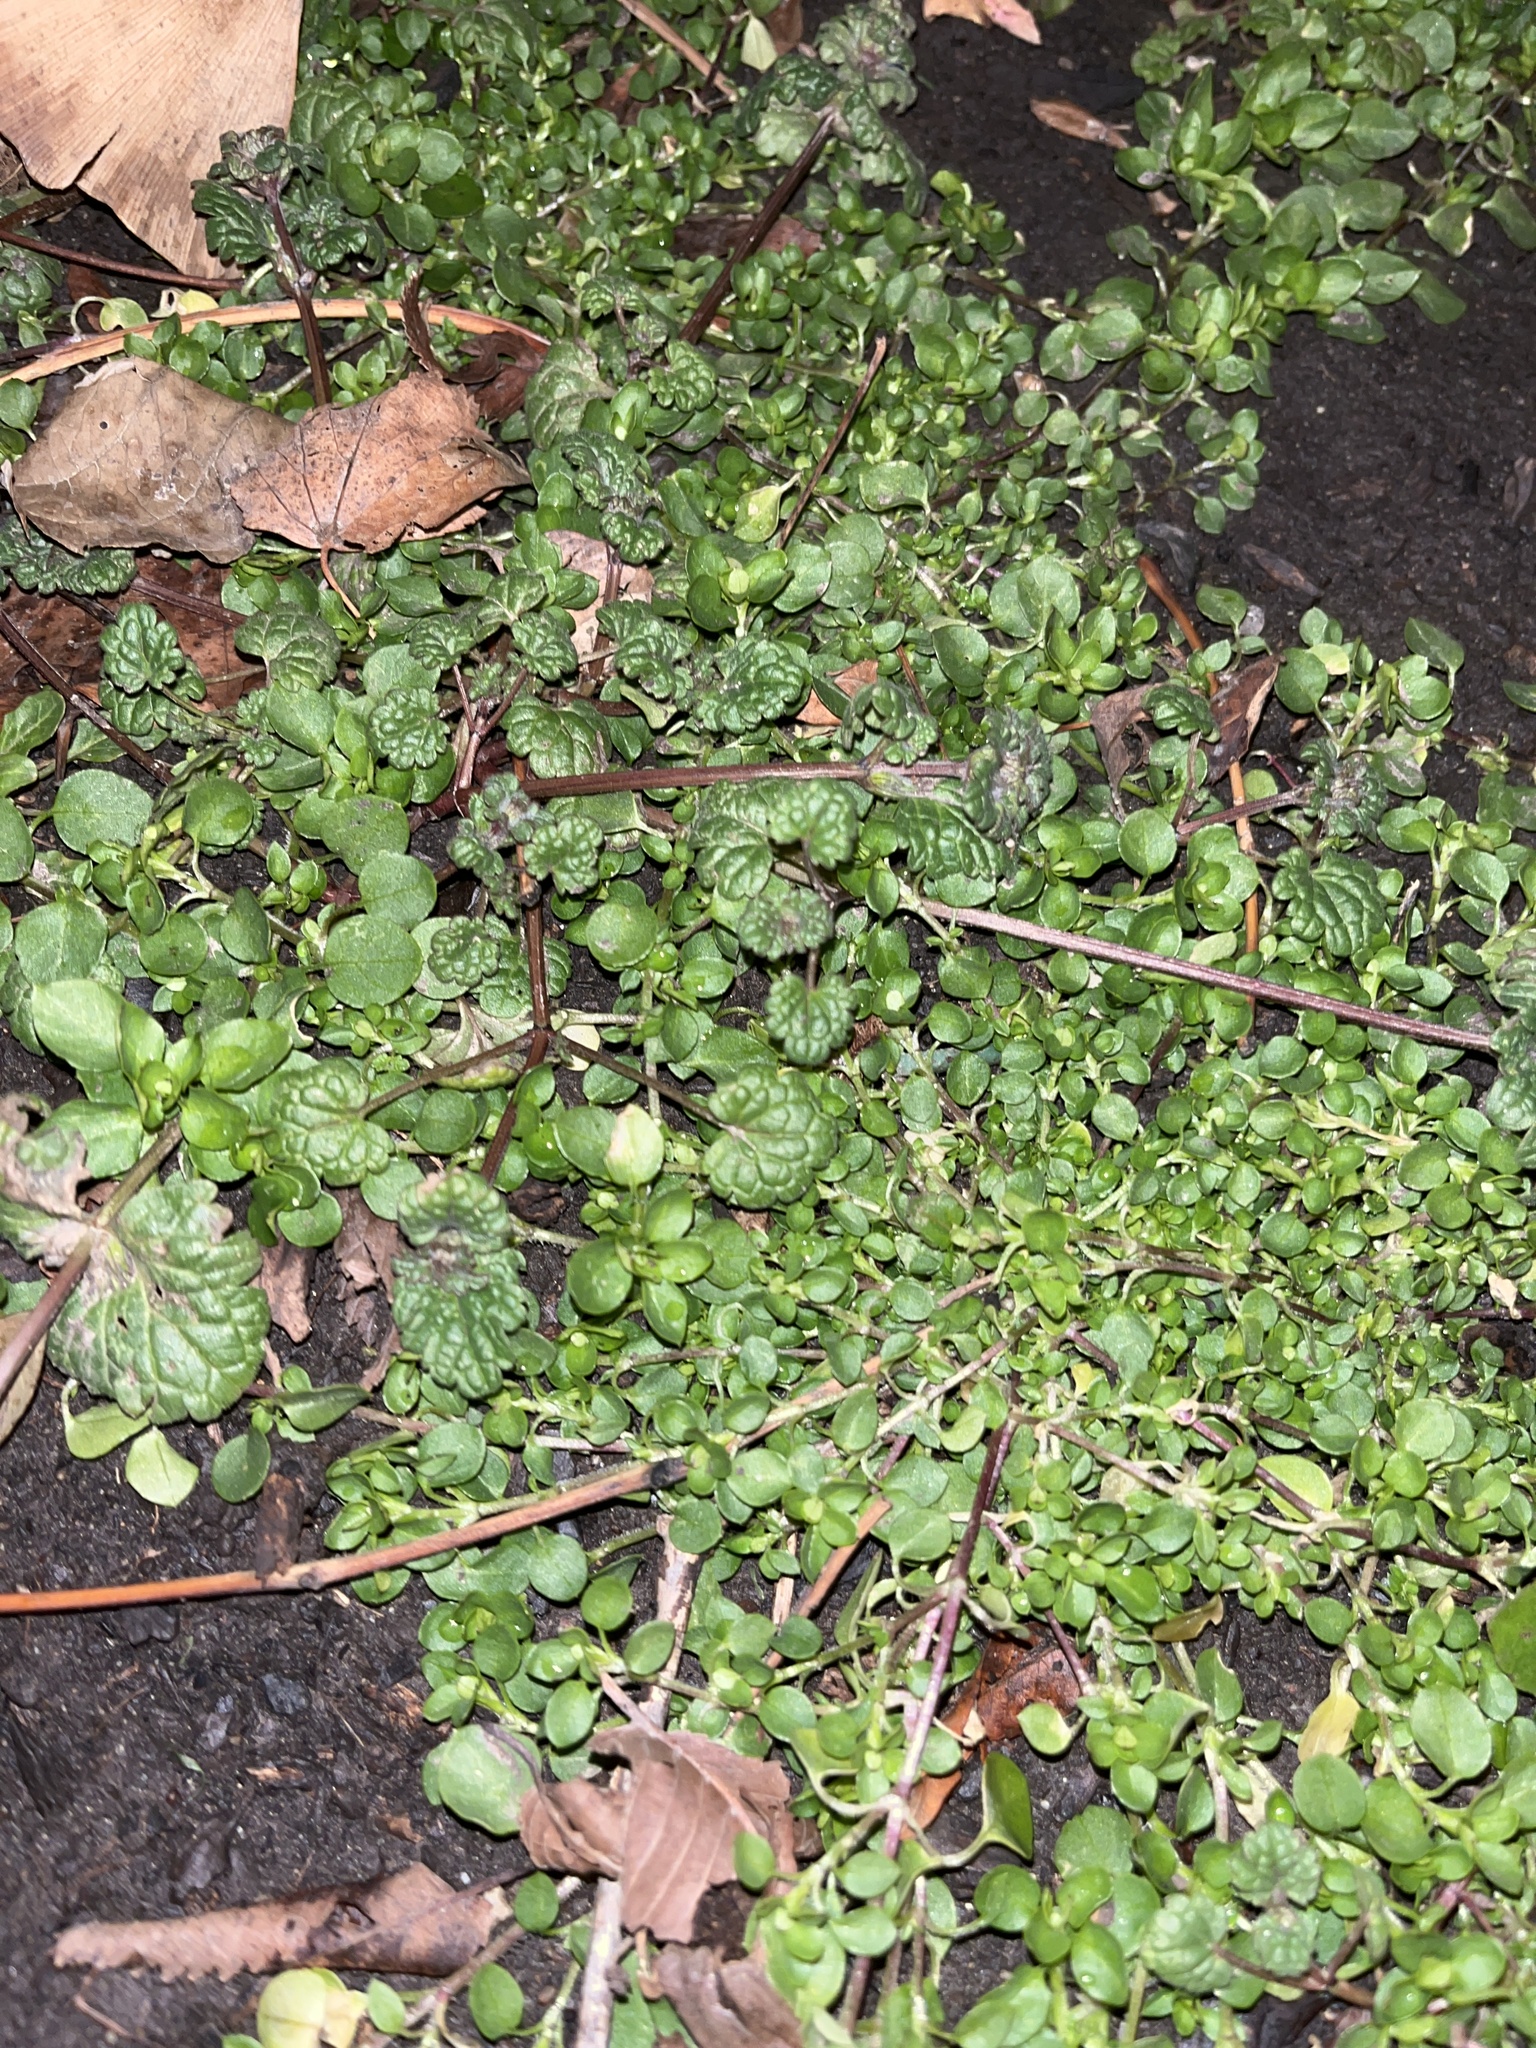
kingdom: Plantae
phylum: Tracheophyta
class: Magnoliopsida
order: Lamiales
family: Lamiaceae
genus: Lamium
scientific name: Lamium amplexicaule
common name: Henbit dead-nettle
